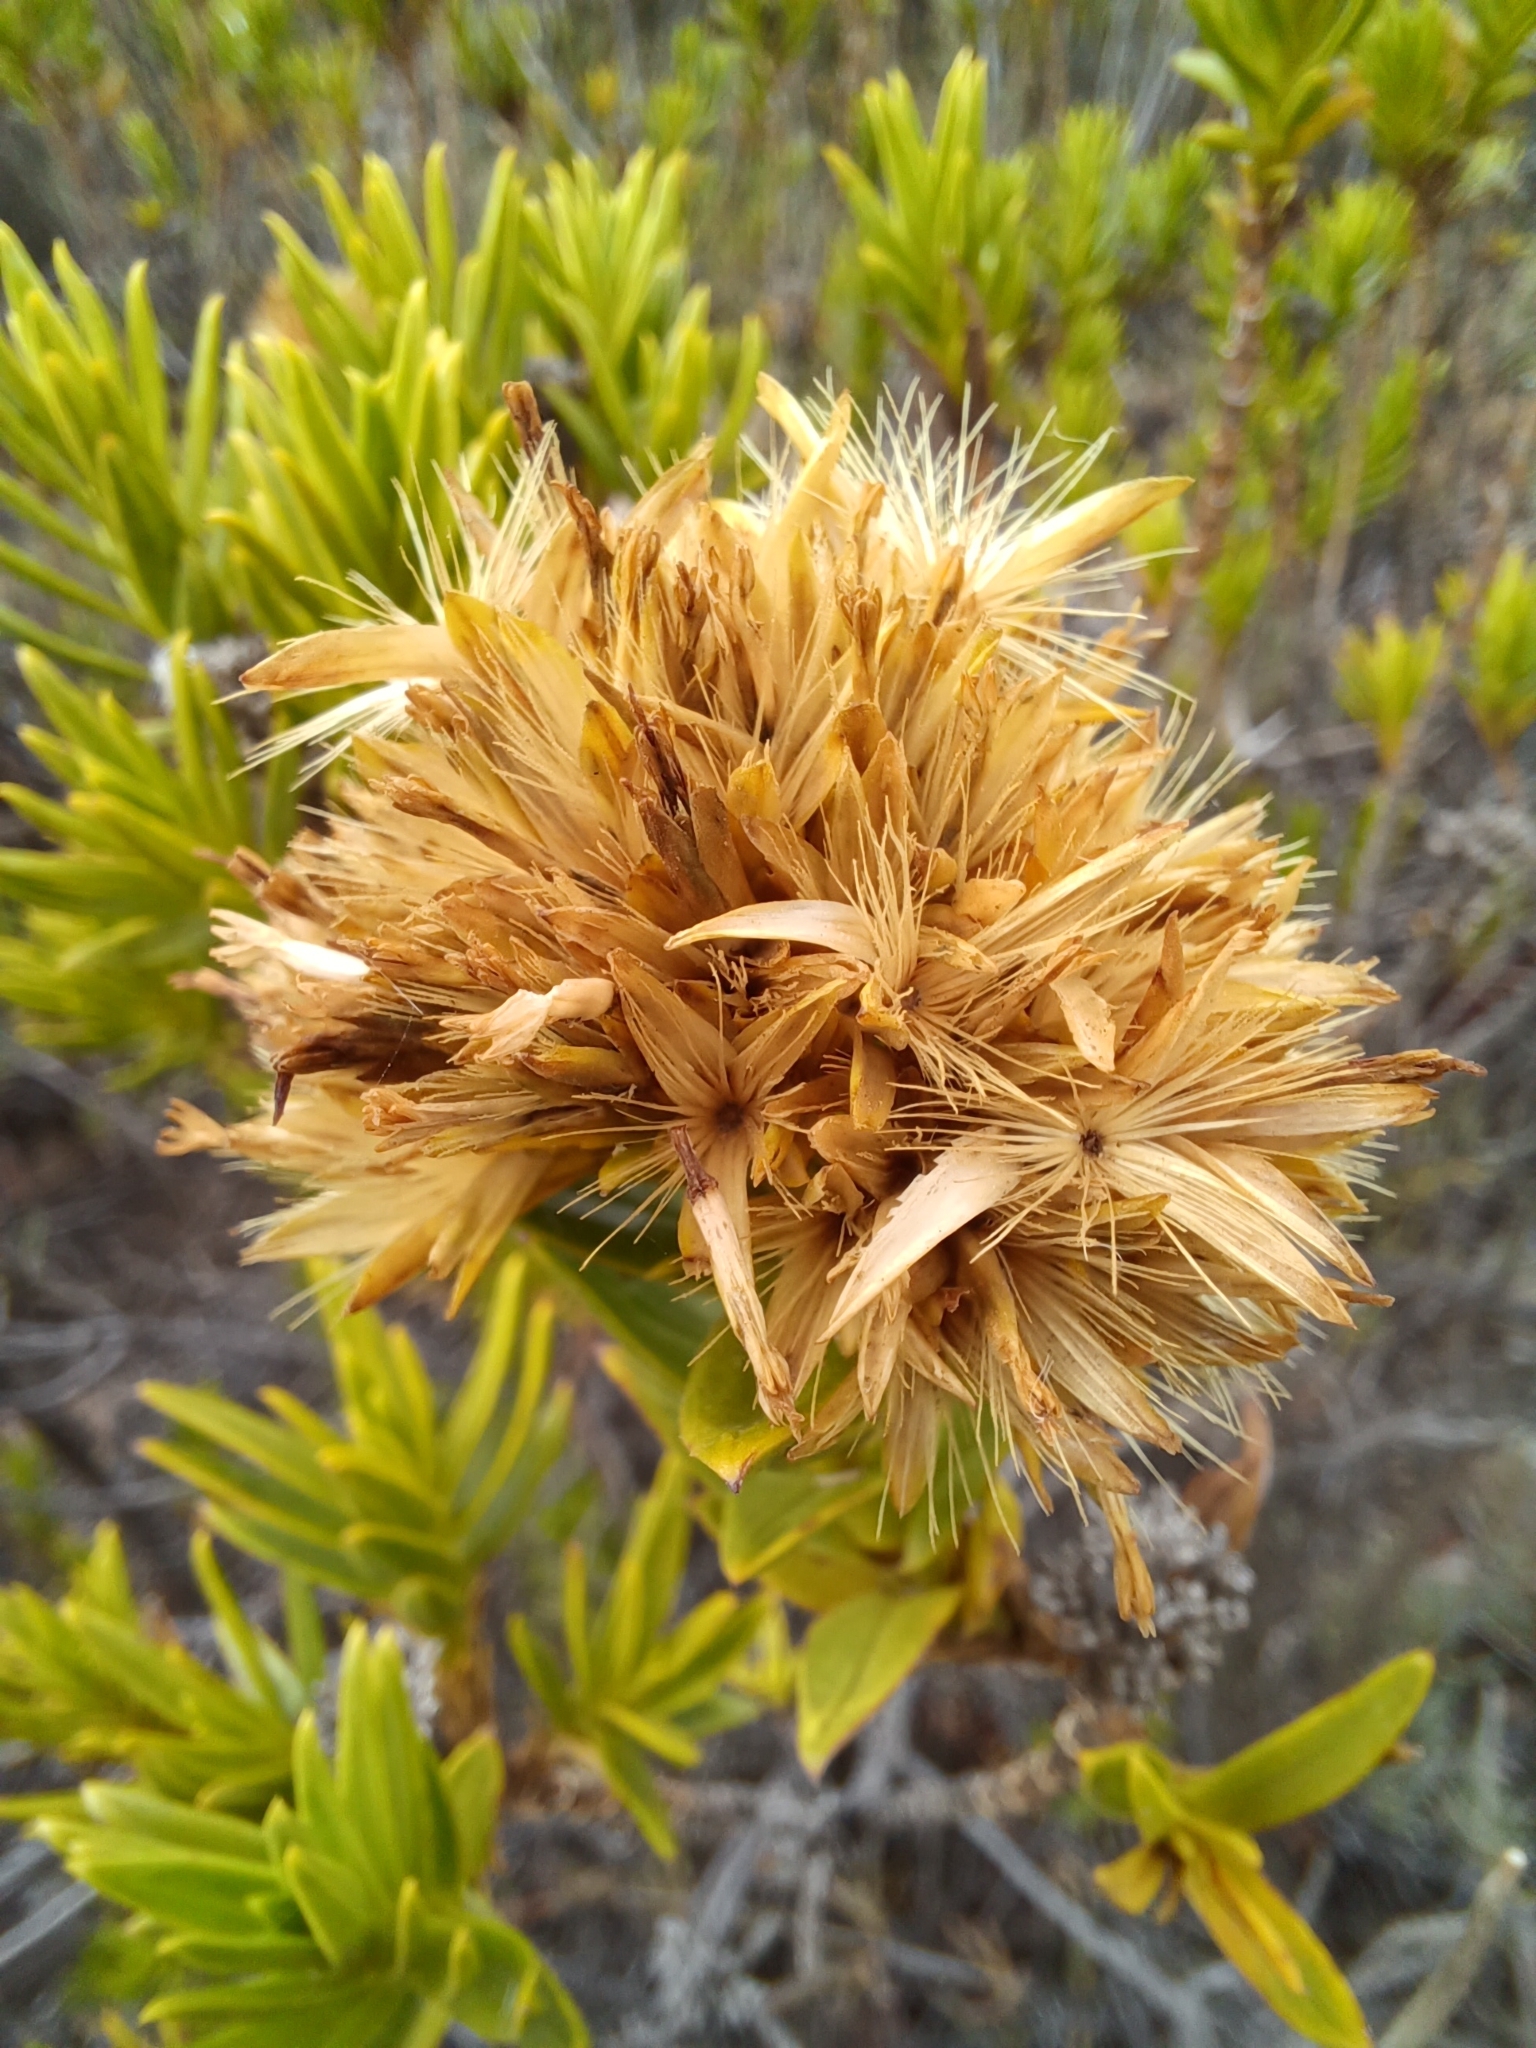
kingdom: Plantae
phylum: Tracheophyta
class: Magnoliopsida
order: Asterales
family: Asteraceae
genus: Pteronia
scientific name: Pteronia fasciculata
